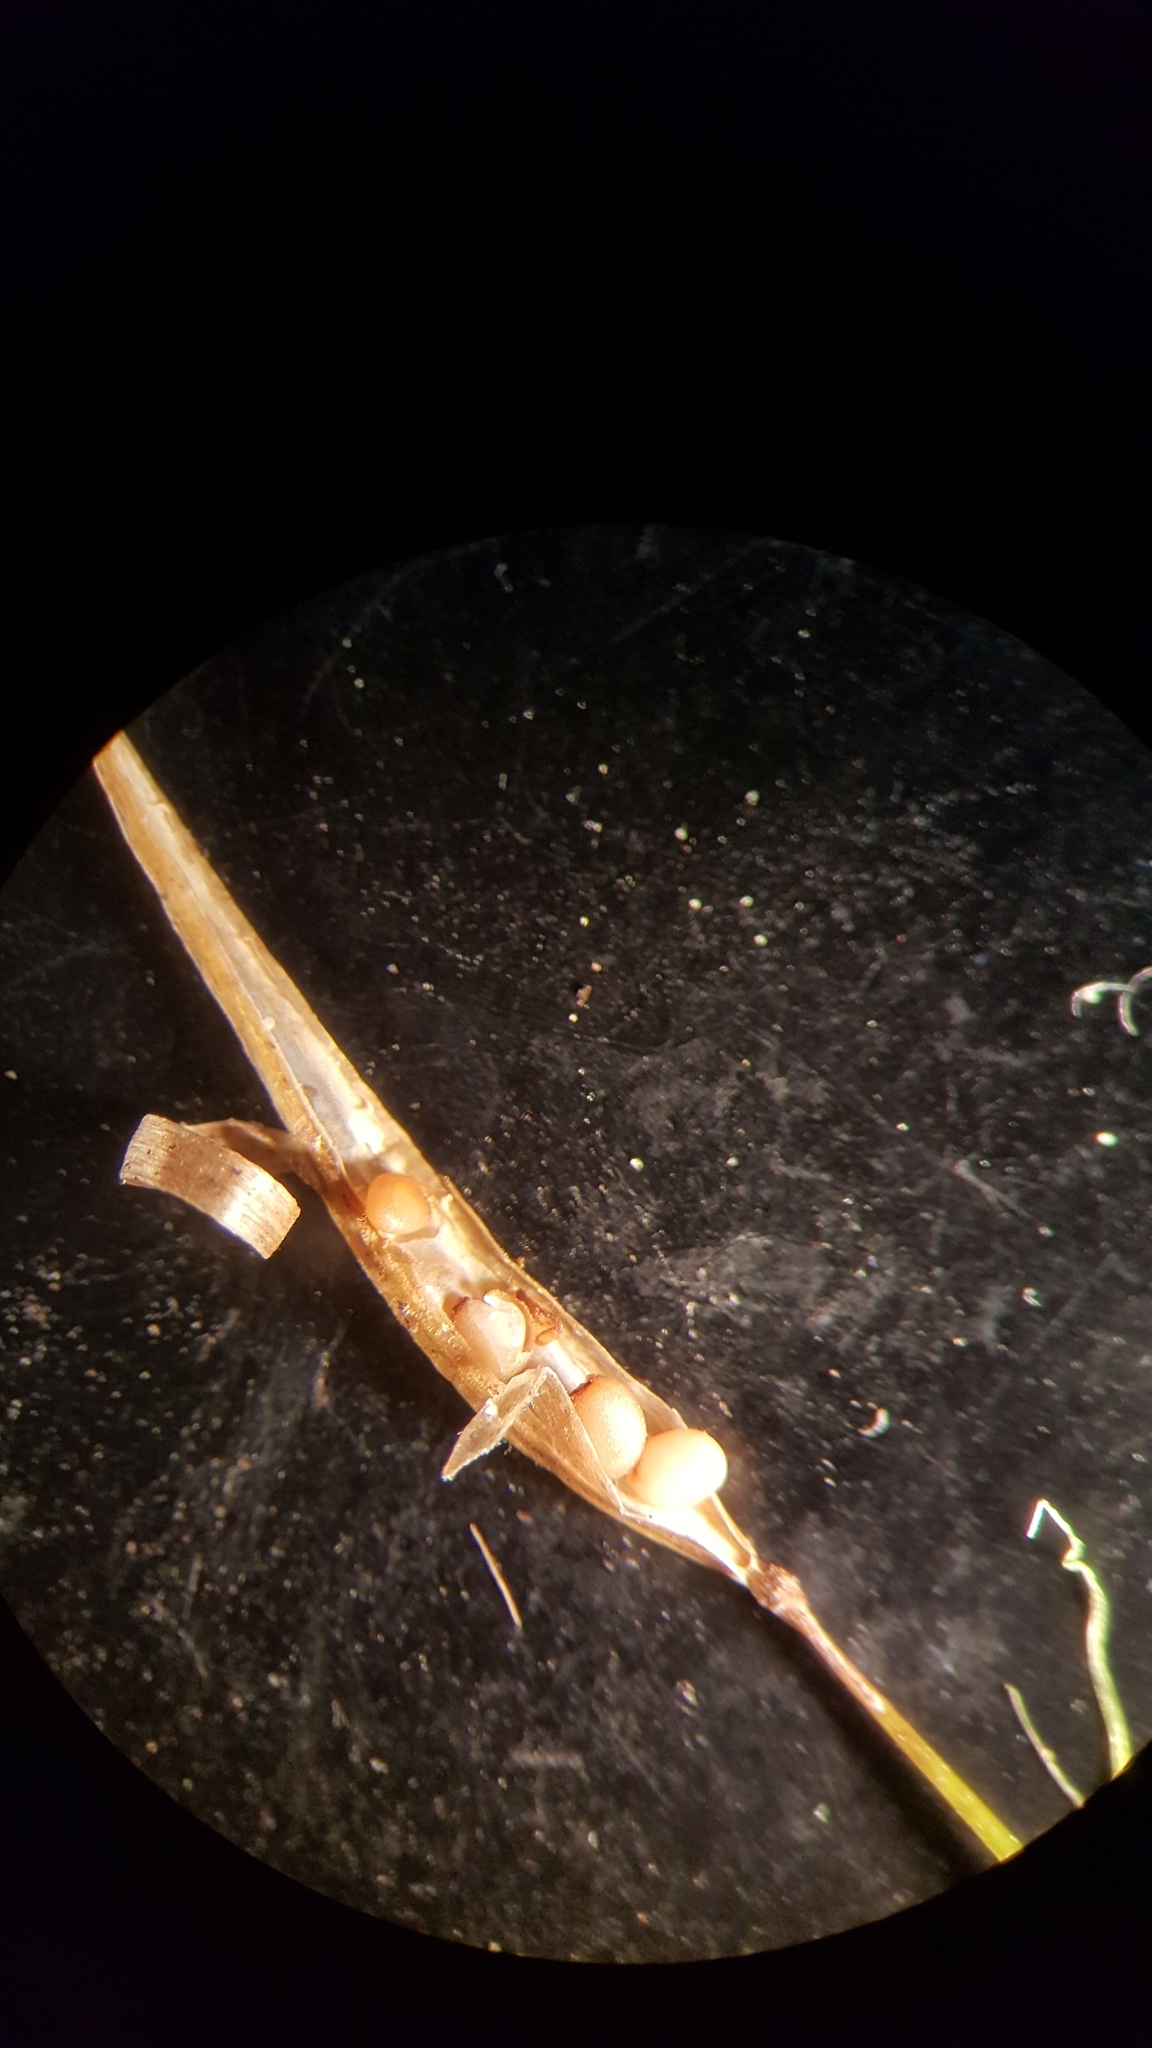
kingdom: Plantae
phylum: Tracheophyta
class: Magnoliopsida
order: Brassicales
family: Brassicaceae
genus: Cardamine
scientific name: Cardamine pensylvanica
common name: Pennsylvania bittercress
